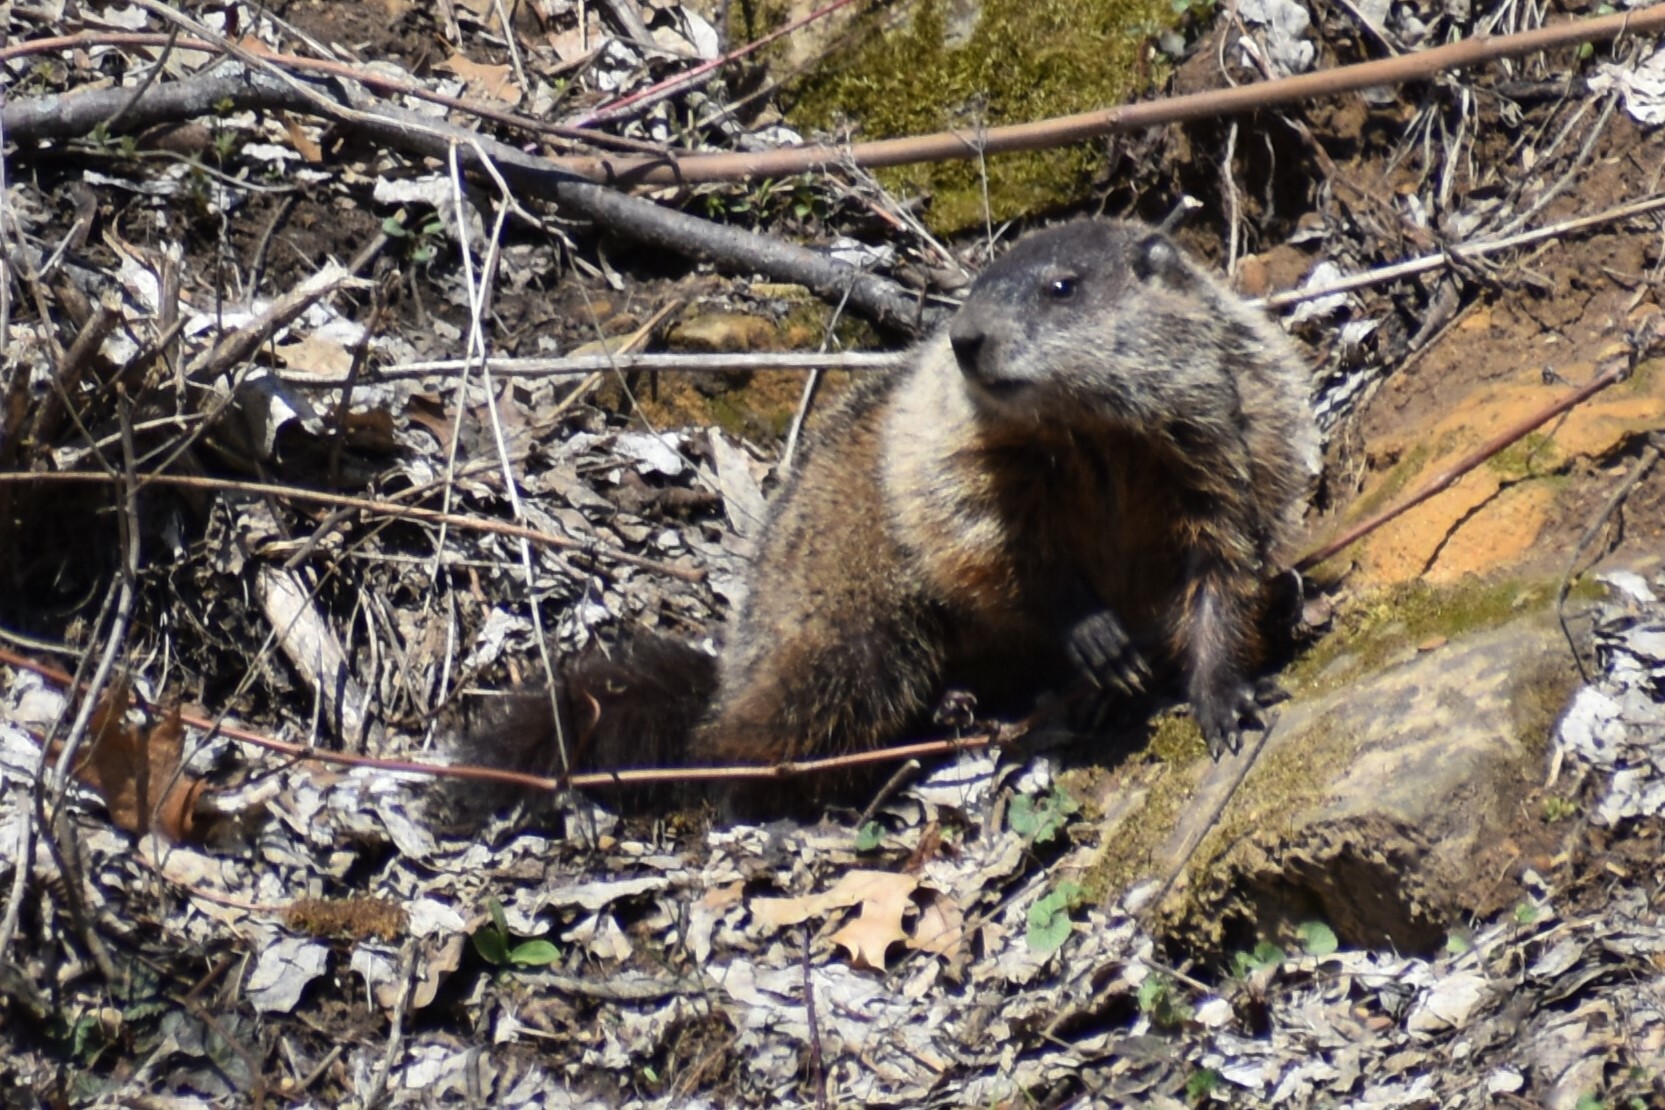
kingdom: Animalia
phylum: Chordata
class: Mammalia
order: Rodentia
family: Sciuridae
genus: Marmota
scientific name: Marmota monax
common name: Groundhog
